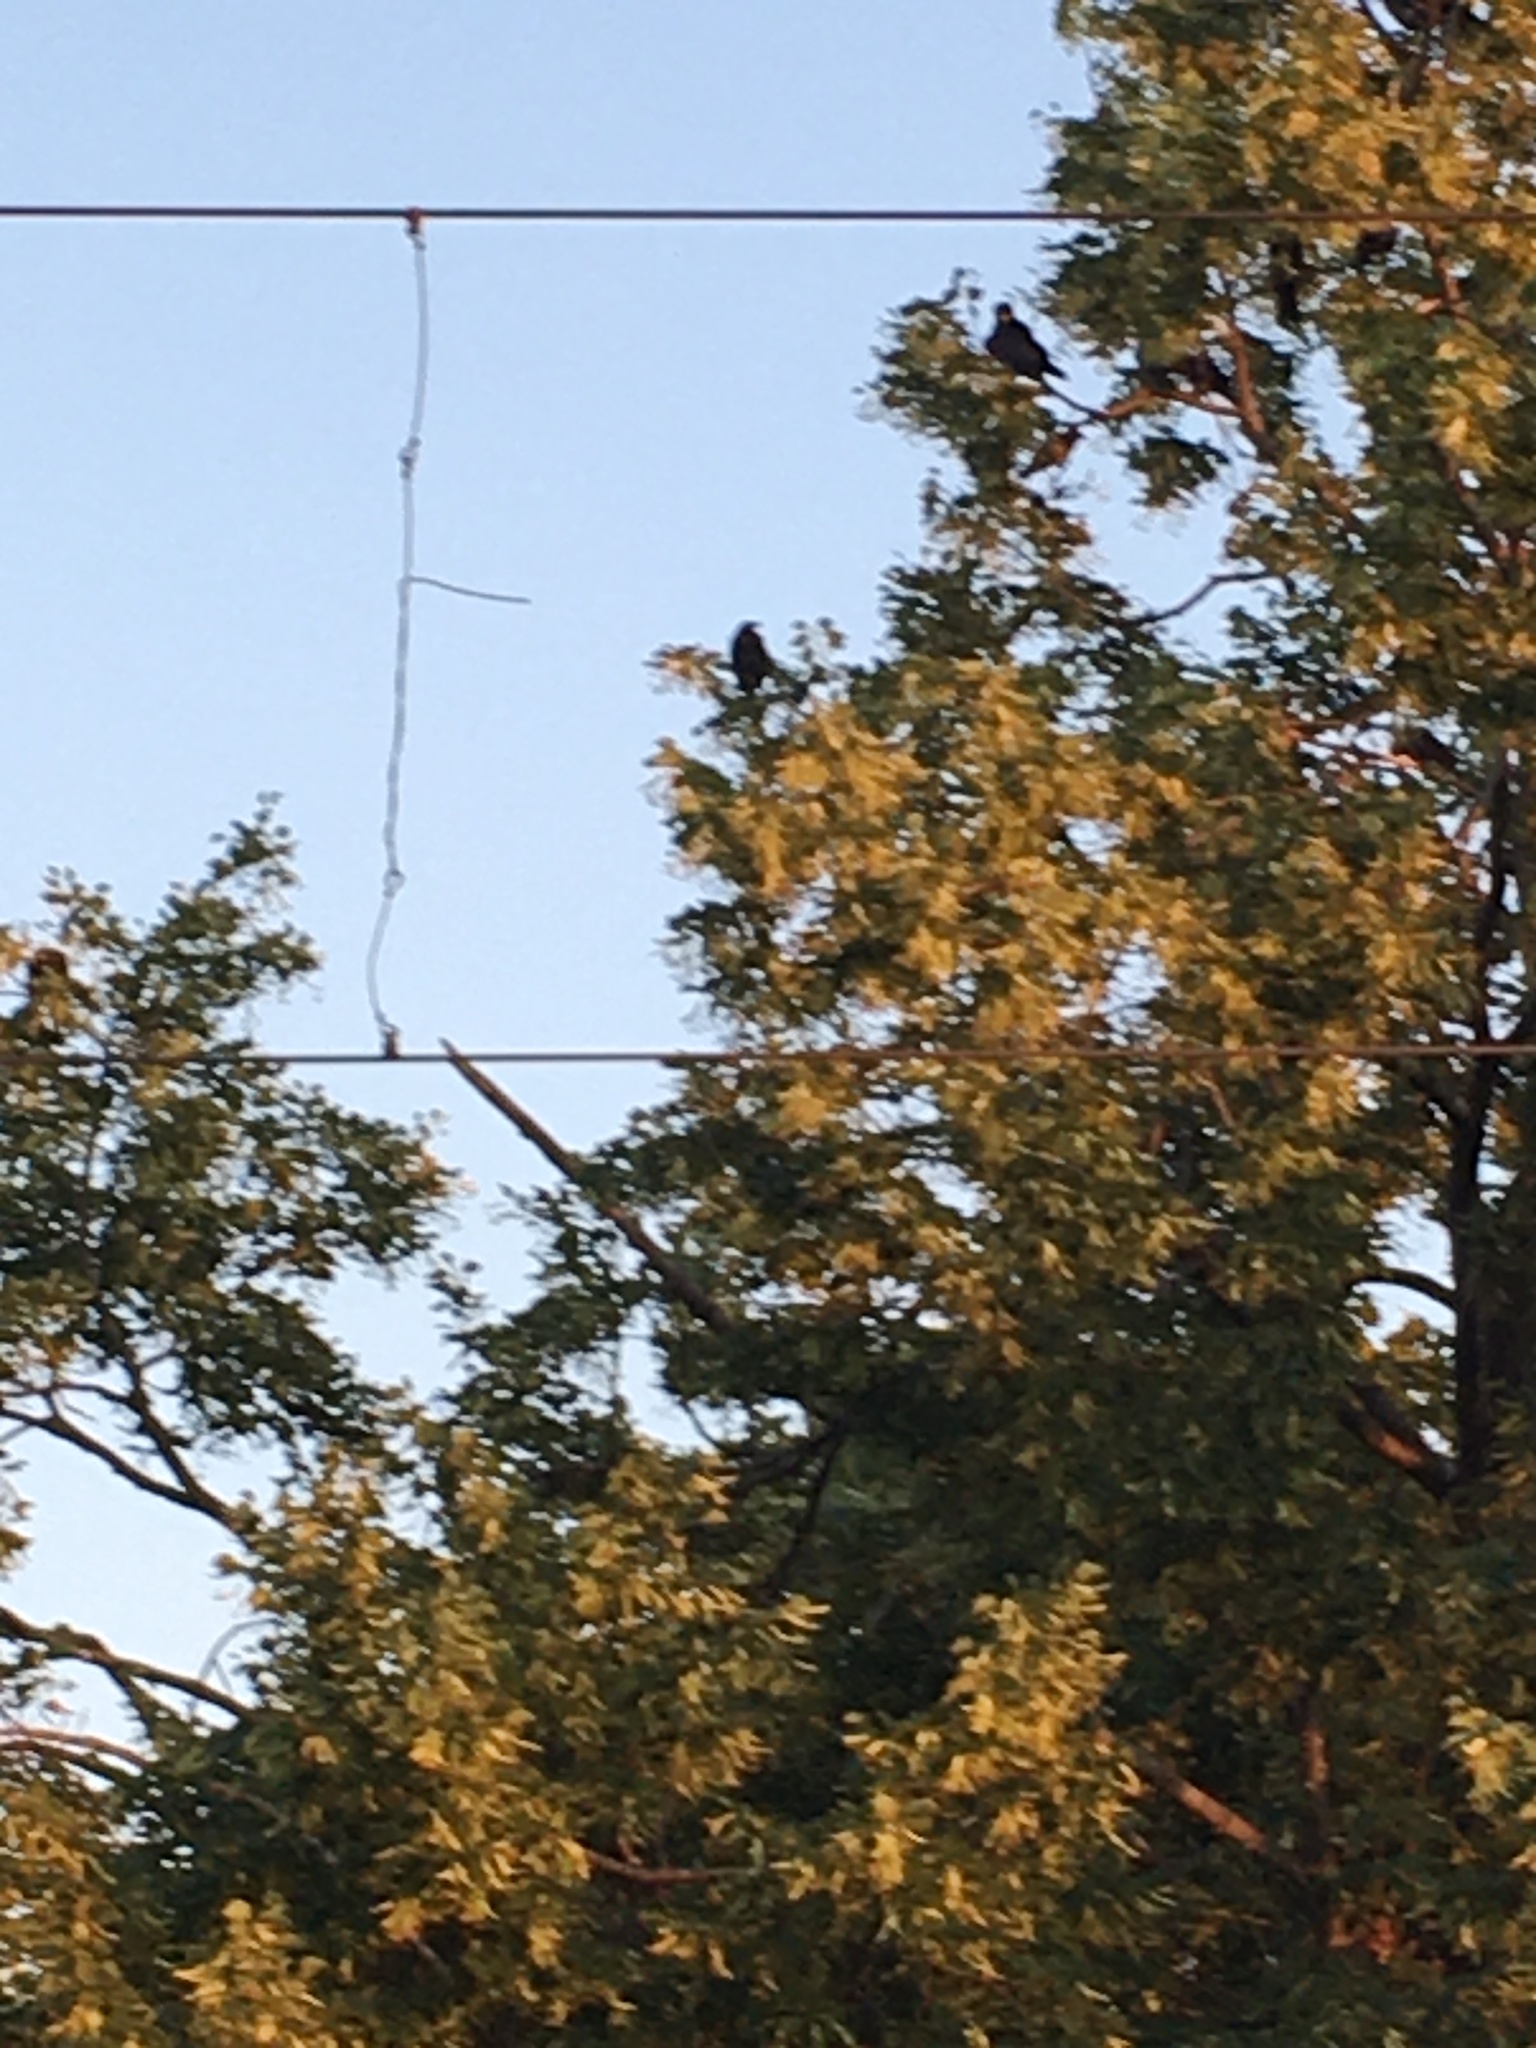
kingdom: Animalia
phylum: Chordata
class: Aves
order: Passeriformes
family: Corvidae
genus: Corvus
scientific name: Corvus frugilegus
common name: Rook
